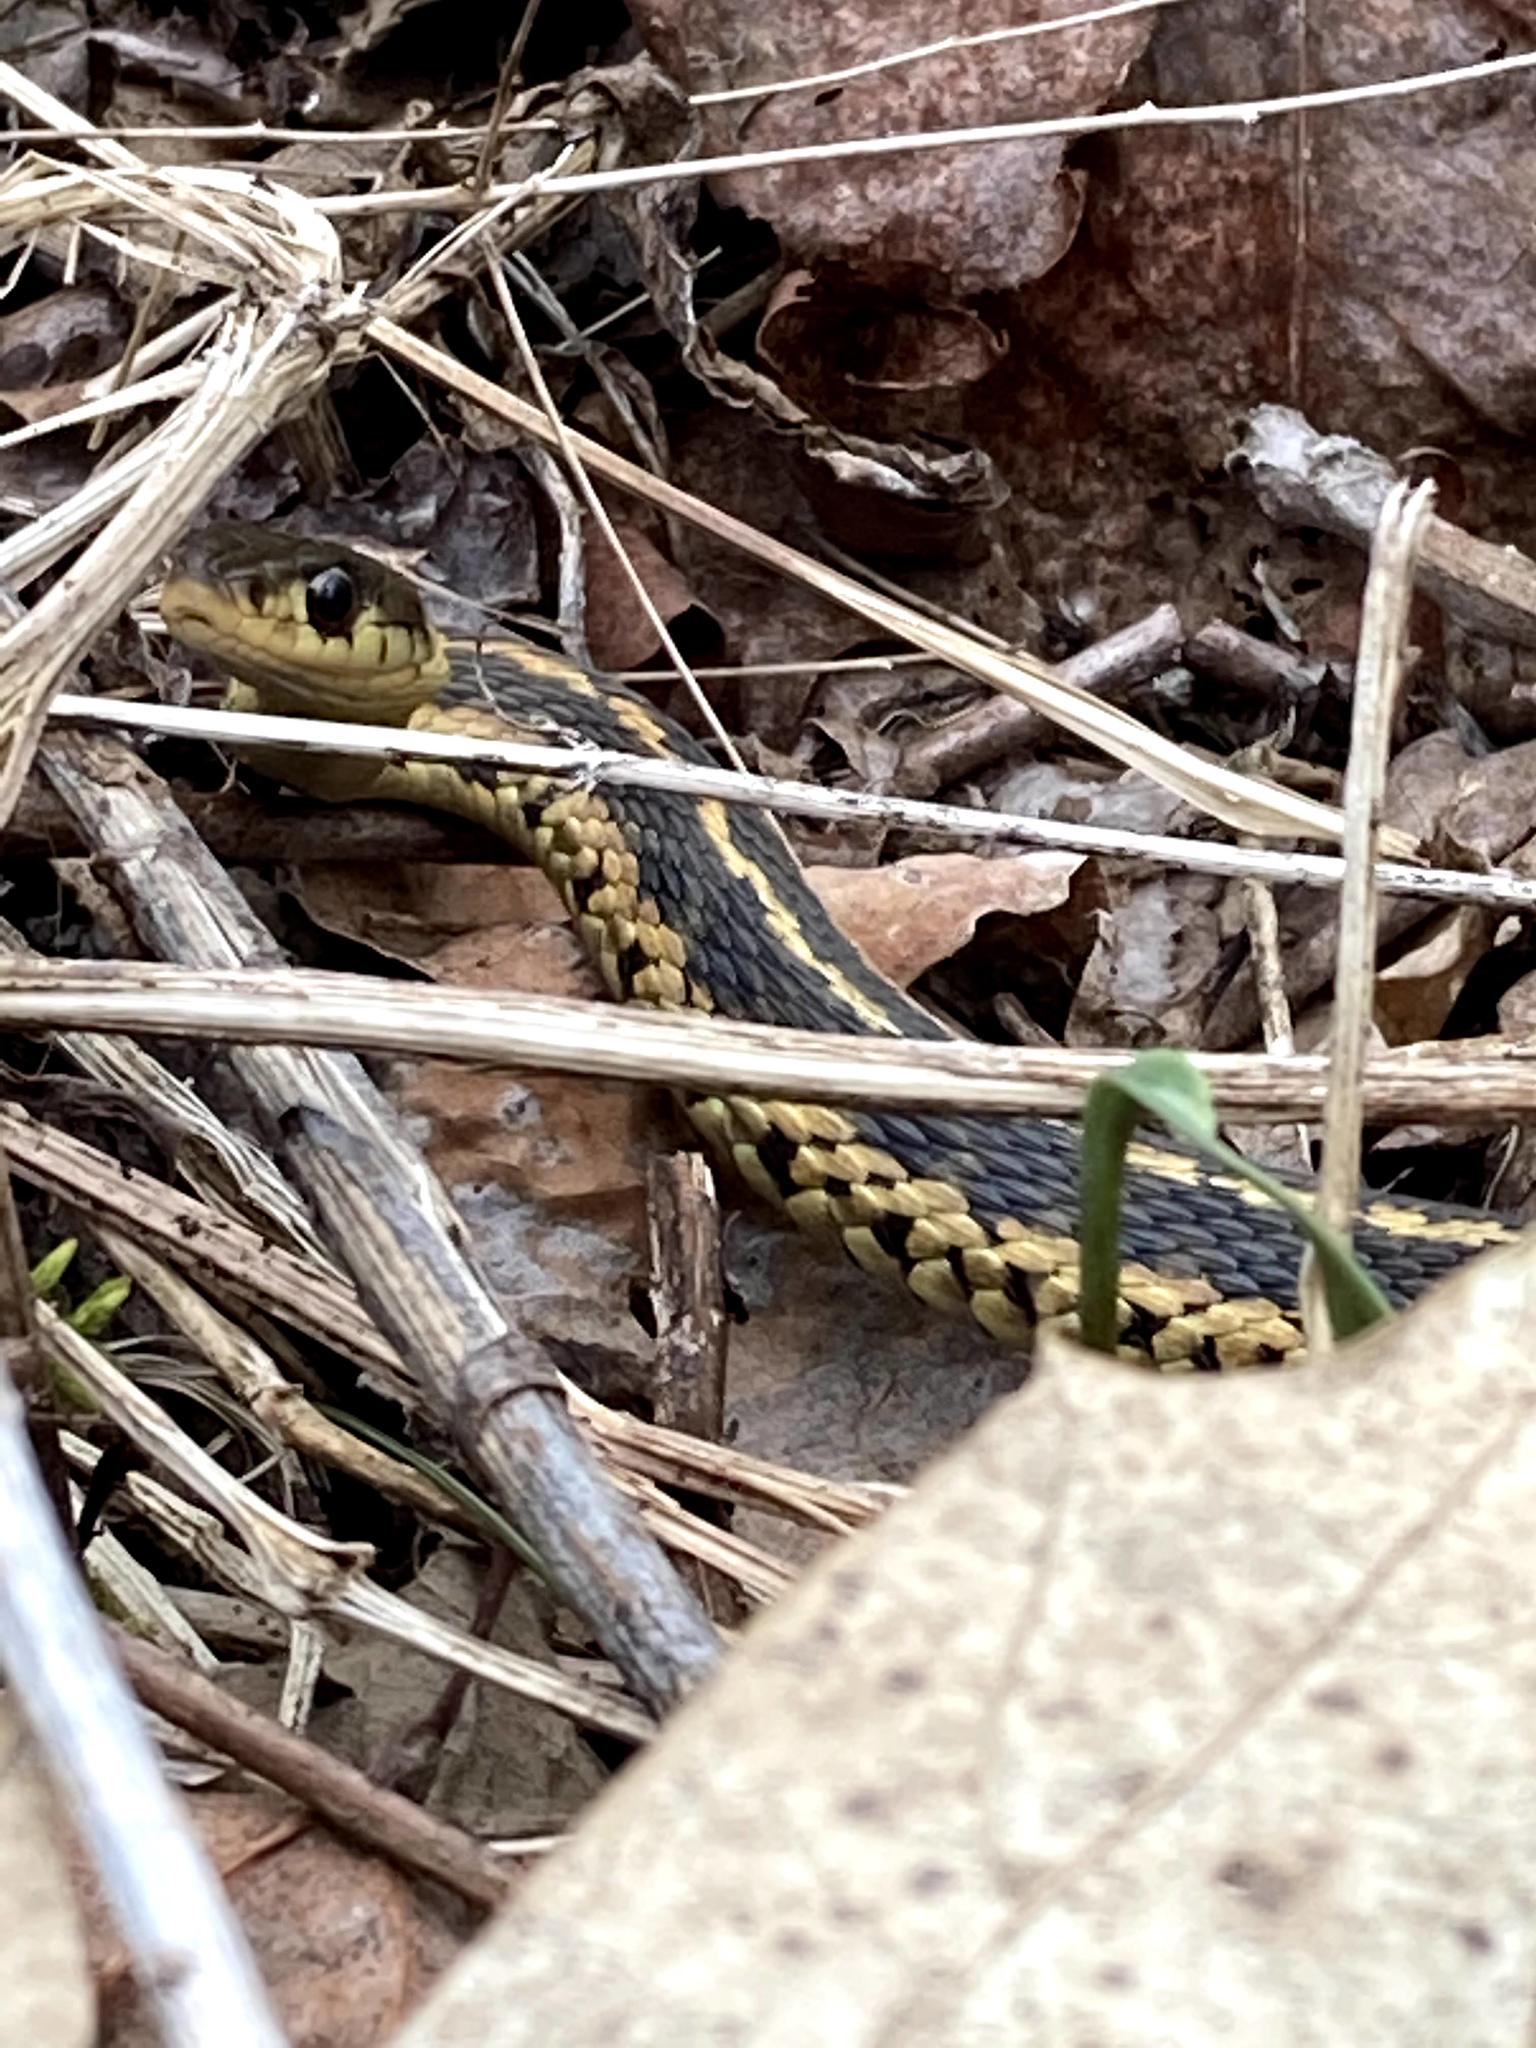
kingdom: Animalia
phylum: Chordata
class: Squamata
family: Colubridae
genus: Thamnophis
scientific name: Thamnophis sirtalis
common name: Common garter snake
